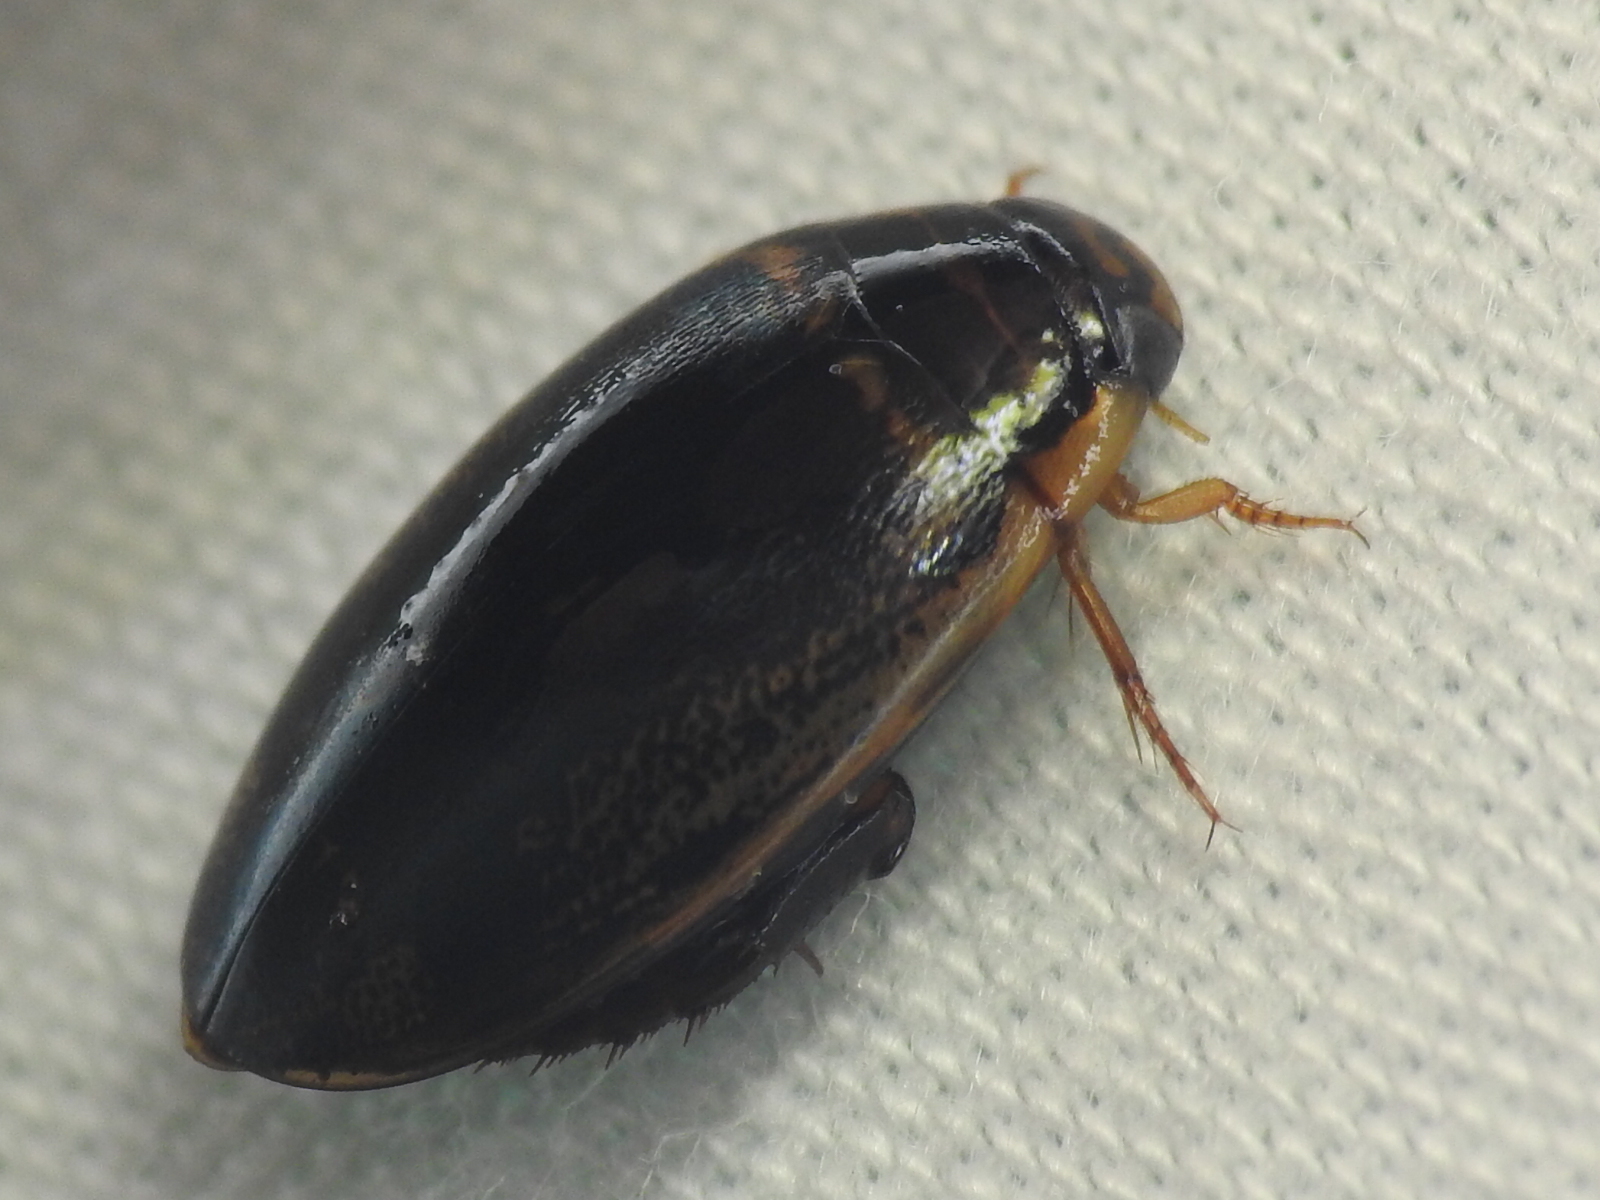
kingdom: Animalia
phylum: Arthropoda
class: Insecta
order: Coleoptera
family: Dytiscidae
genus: Thermonectus
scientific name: Thermonectus basillaris
